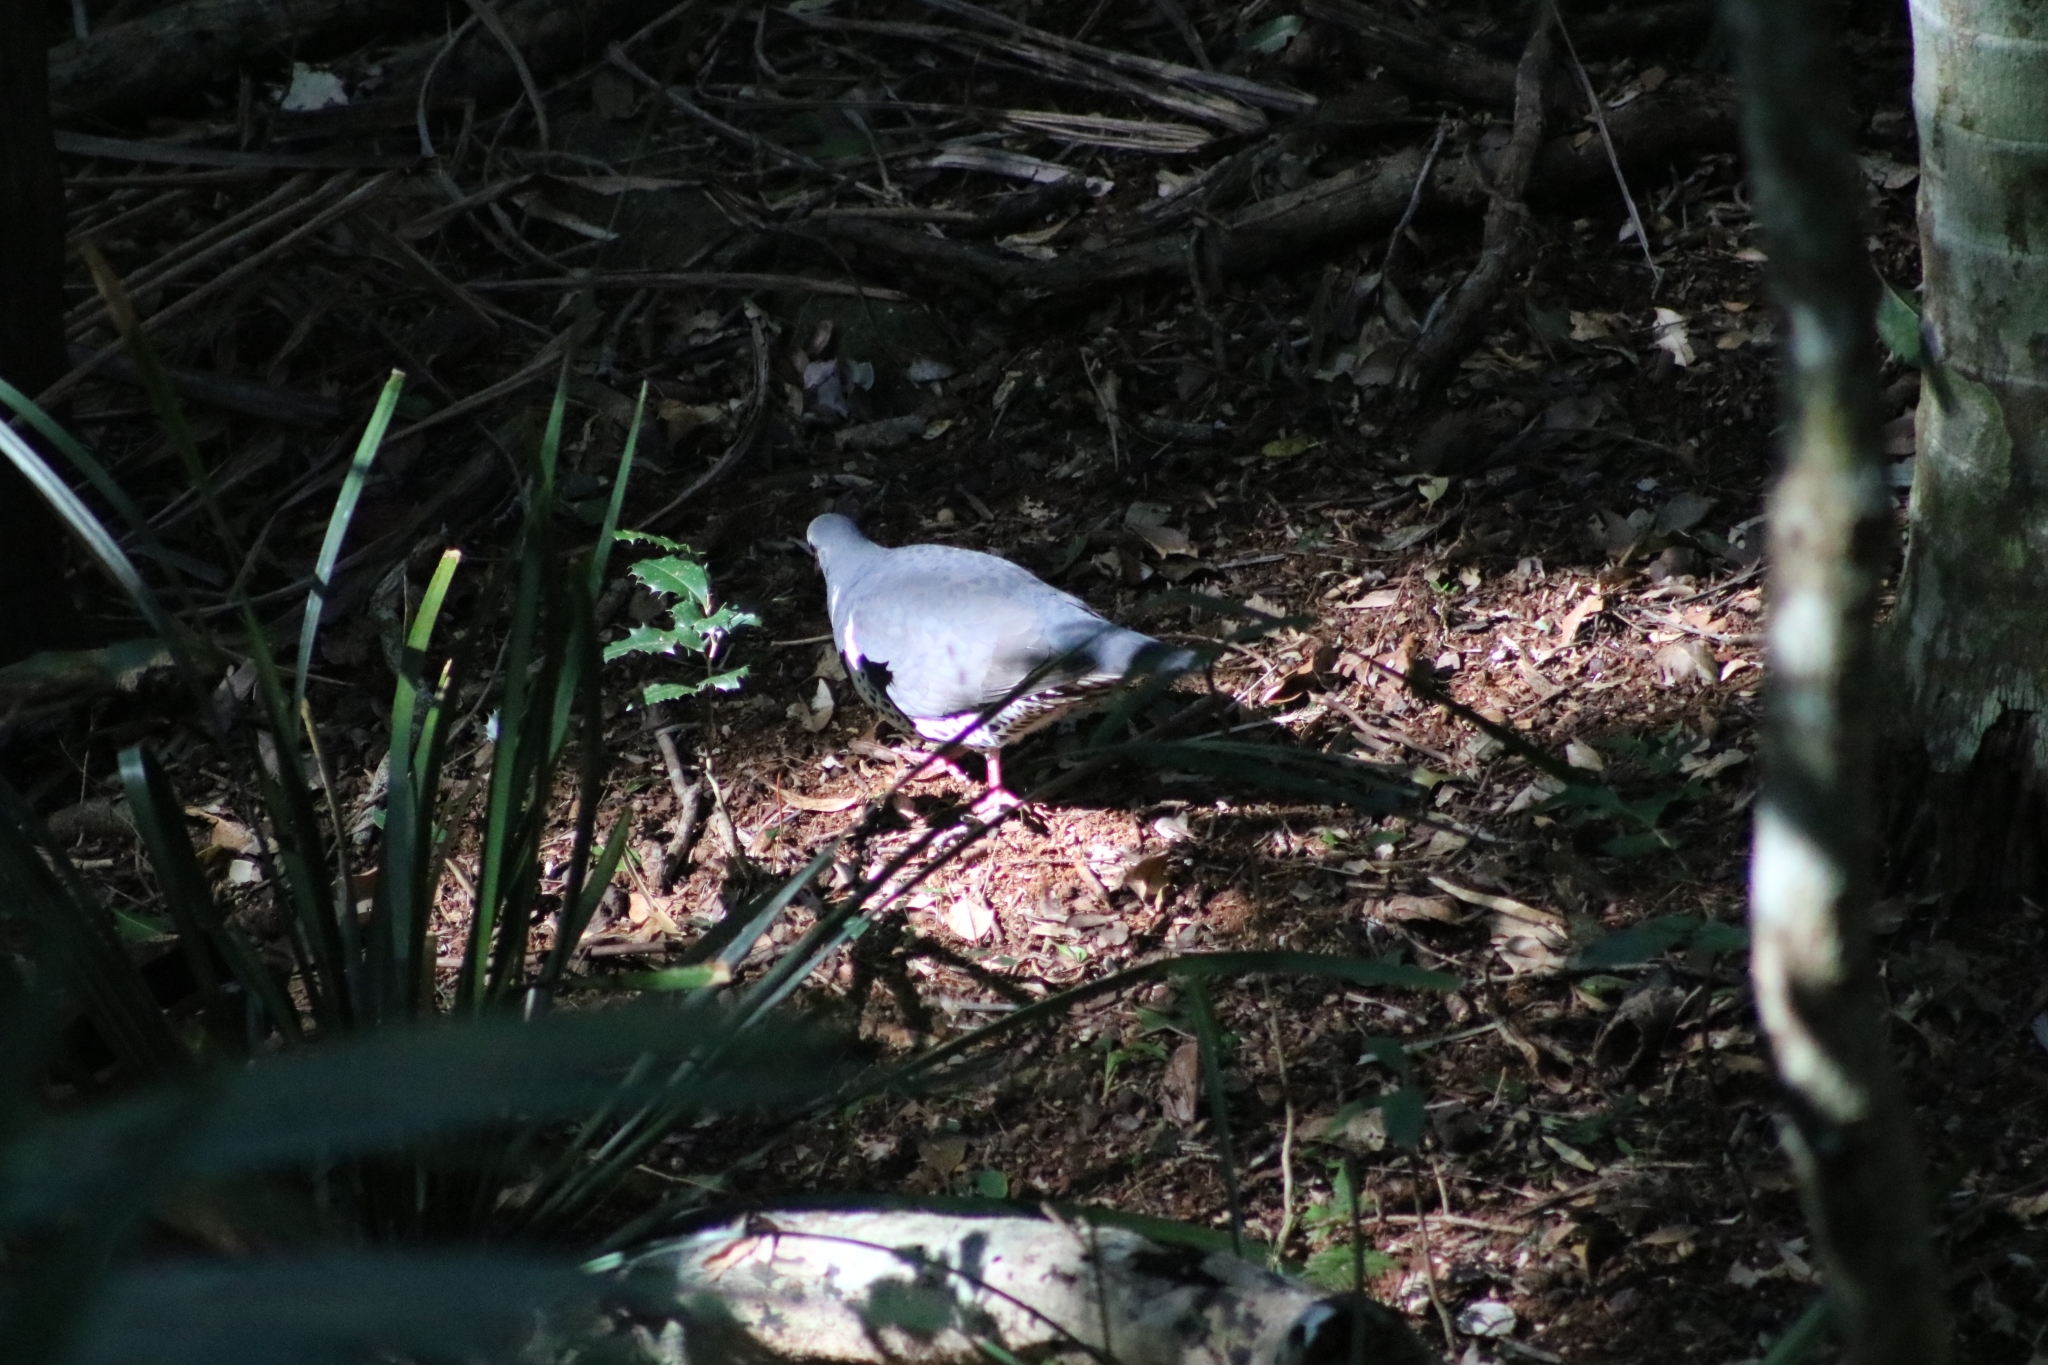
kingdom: Animalia
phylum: Chordata
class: Aves
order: Columbiformes
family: Columbidae
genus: Leucosarcia
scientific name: Leucosarcia melanoleuca
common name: Wonga pigeon
